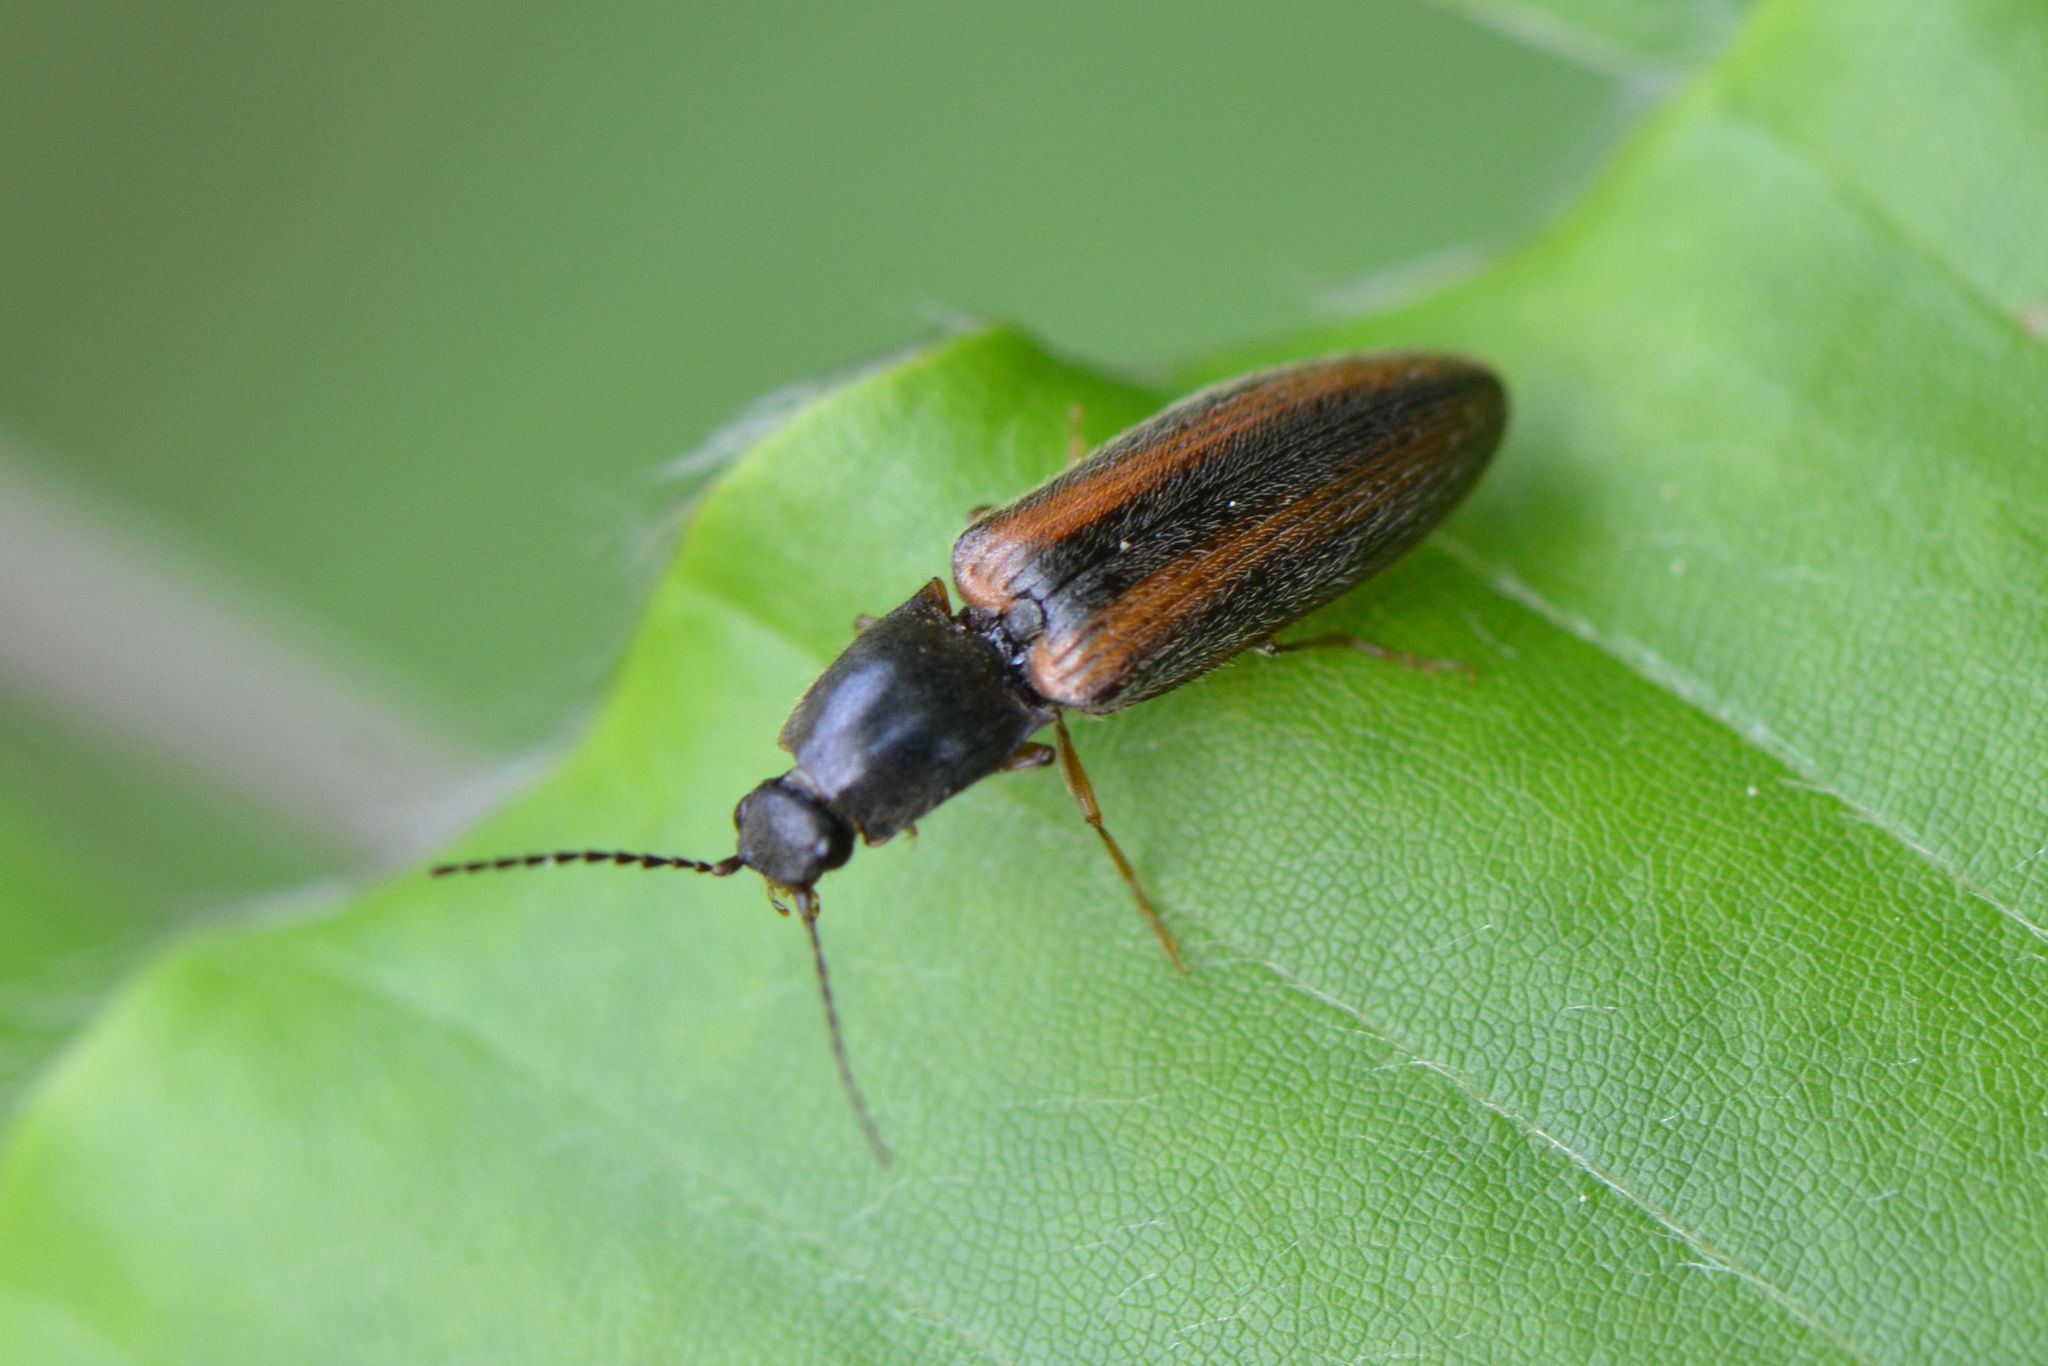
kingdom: Animalia
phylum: Arthropoda
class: Insecta
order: Coleoptera
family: Elateridae
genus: Athous
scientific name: Athous vittatus
